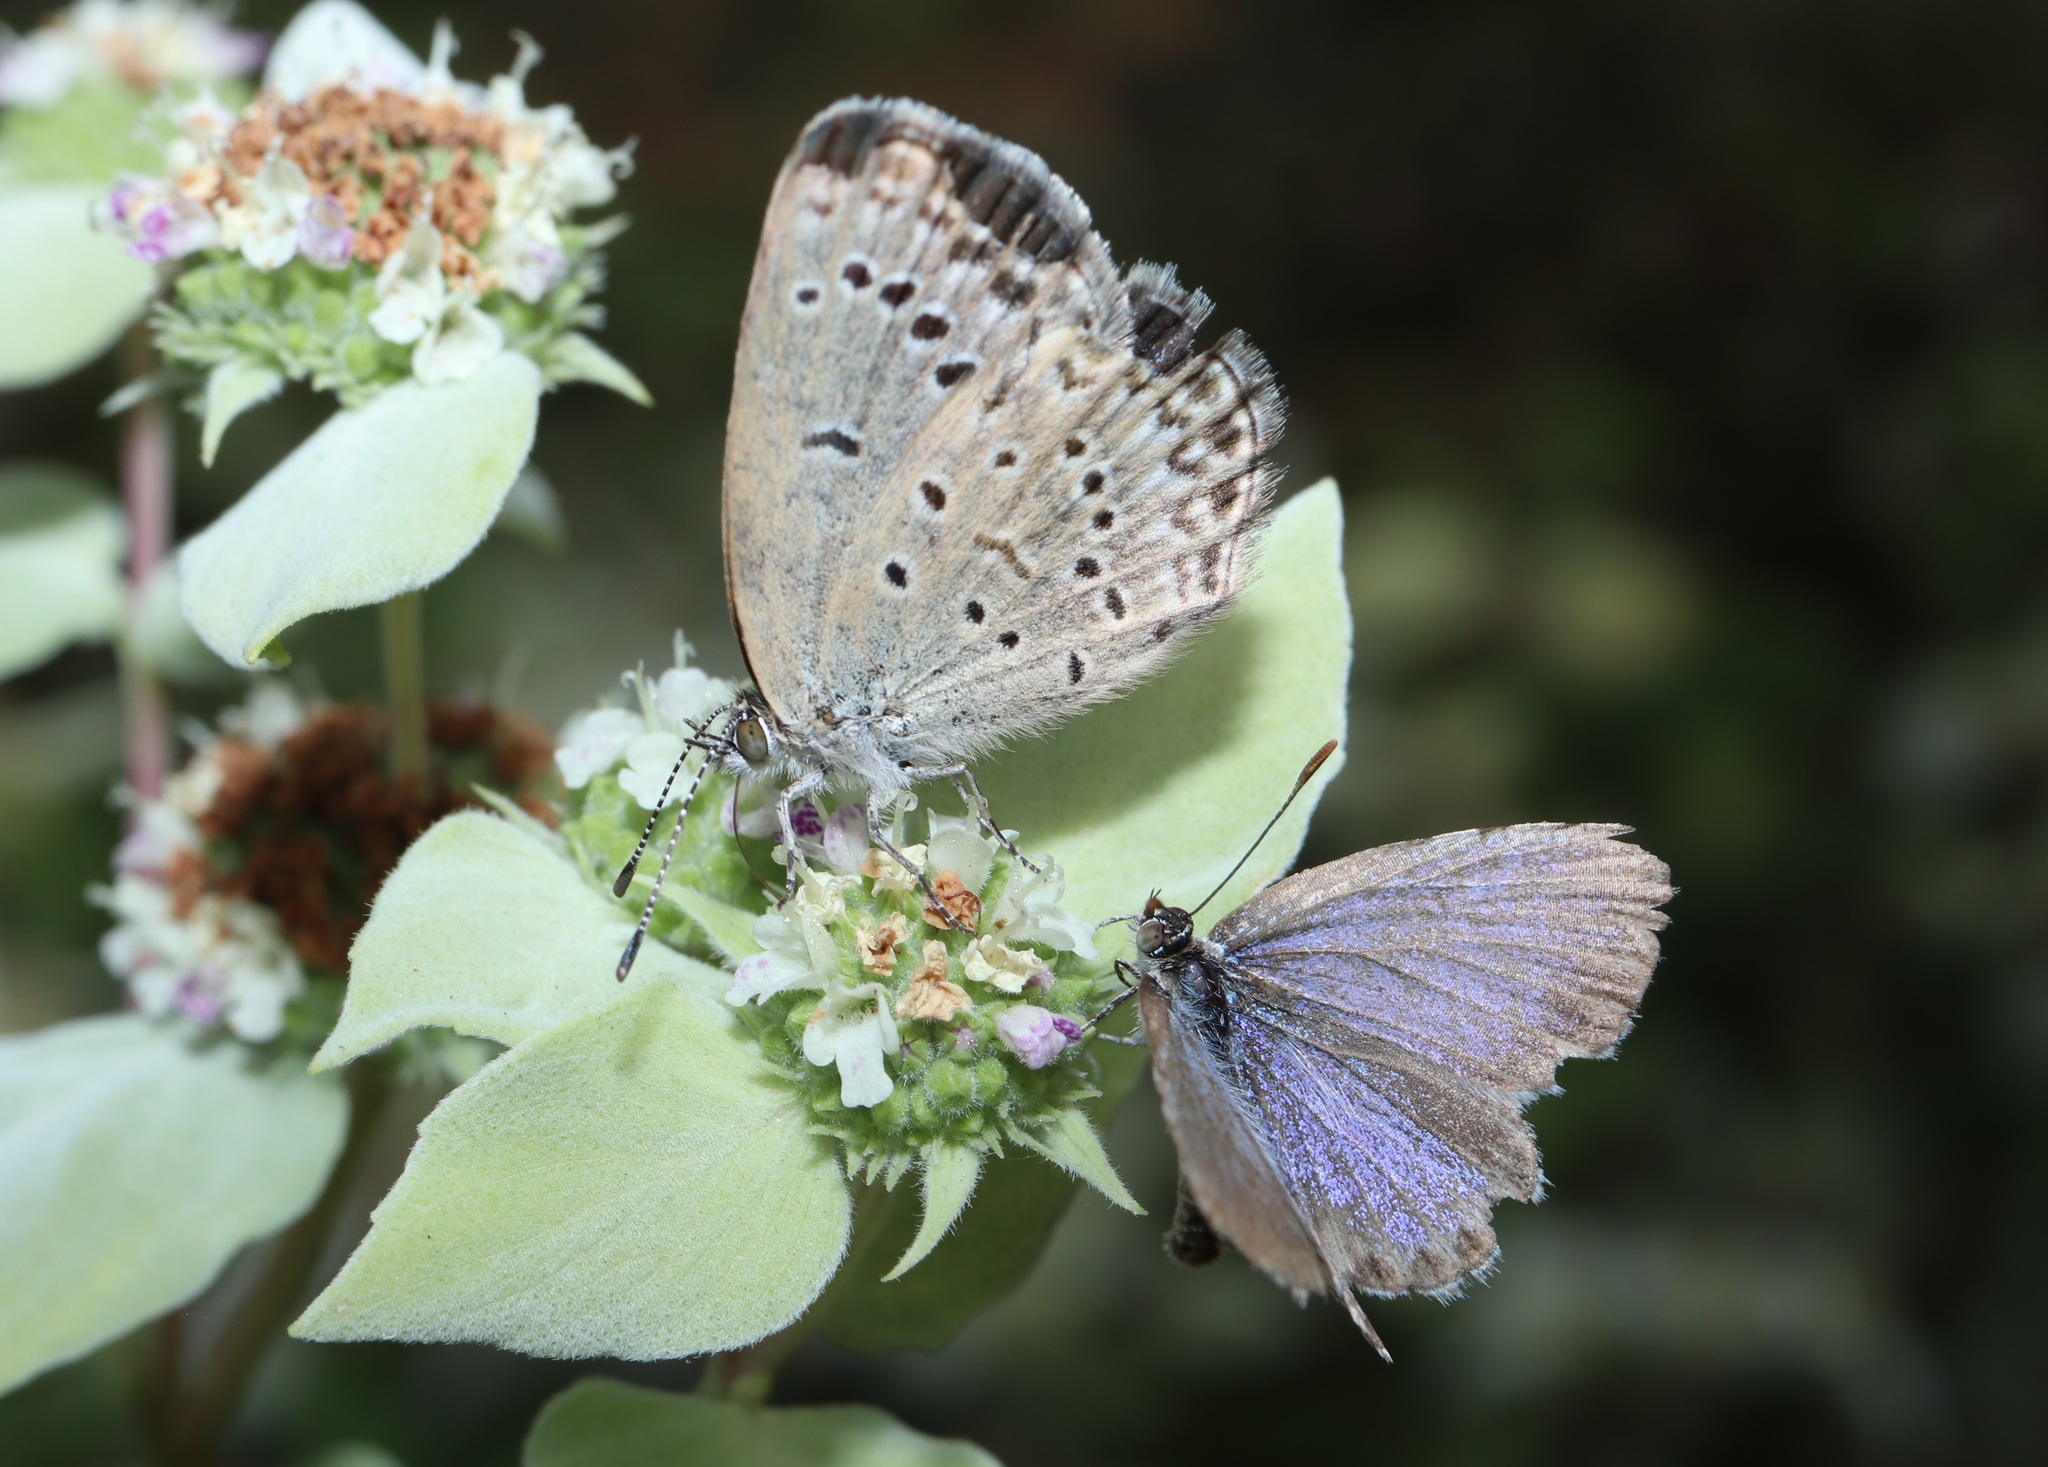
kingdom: Animalia
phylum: Arthropoda
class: Insecta
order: Lepidoptera
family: Lycaenidae
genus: Pseudozizeeria
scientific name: Pseudozizeeria maha
